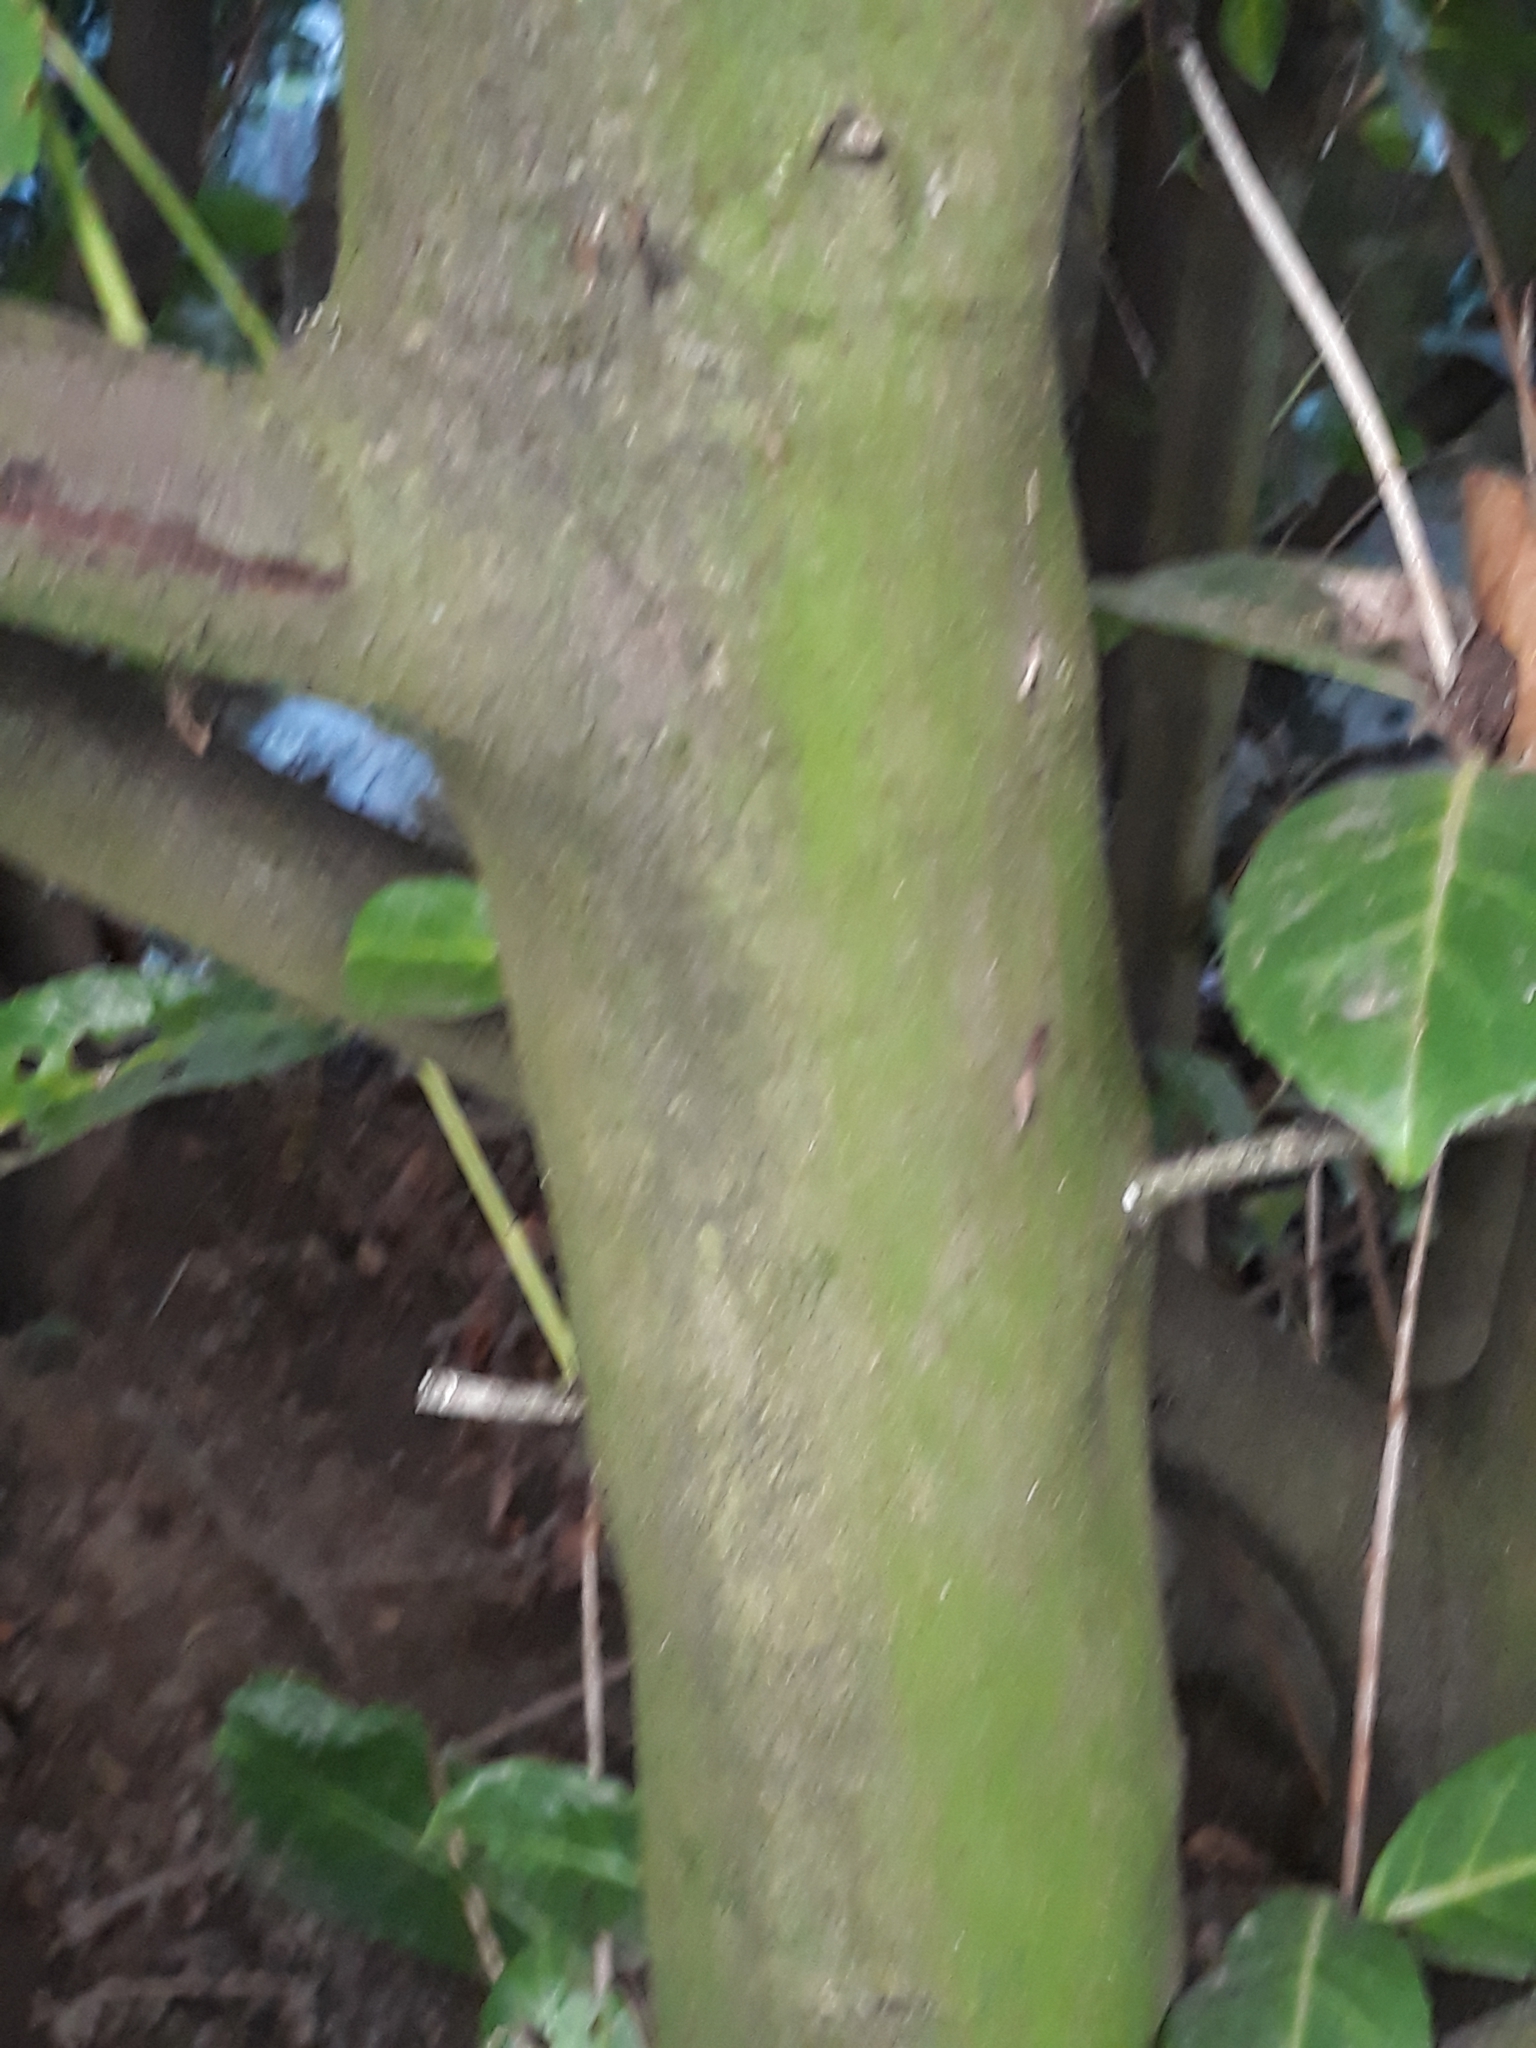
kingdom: Plantae
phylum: Tracheophyta
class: Magnoliopsida
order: Rosales
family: Rosaceae
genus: Prunus
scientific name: Prunus laurocerasus
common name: Cherry laurel
